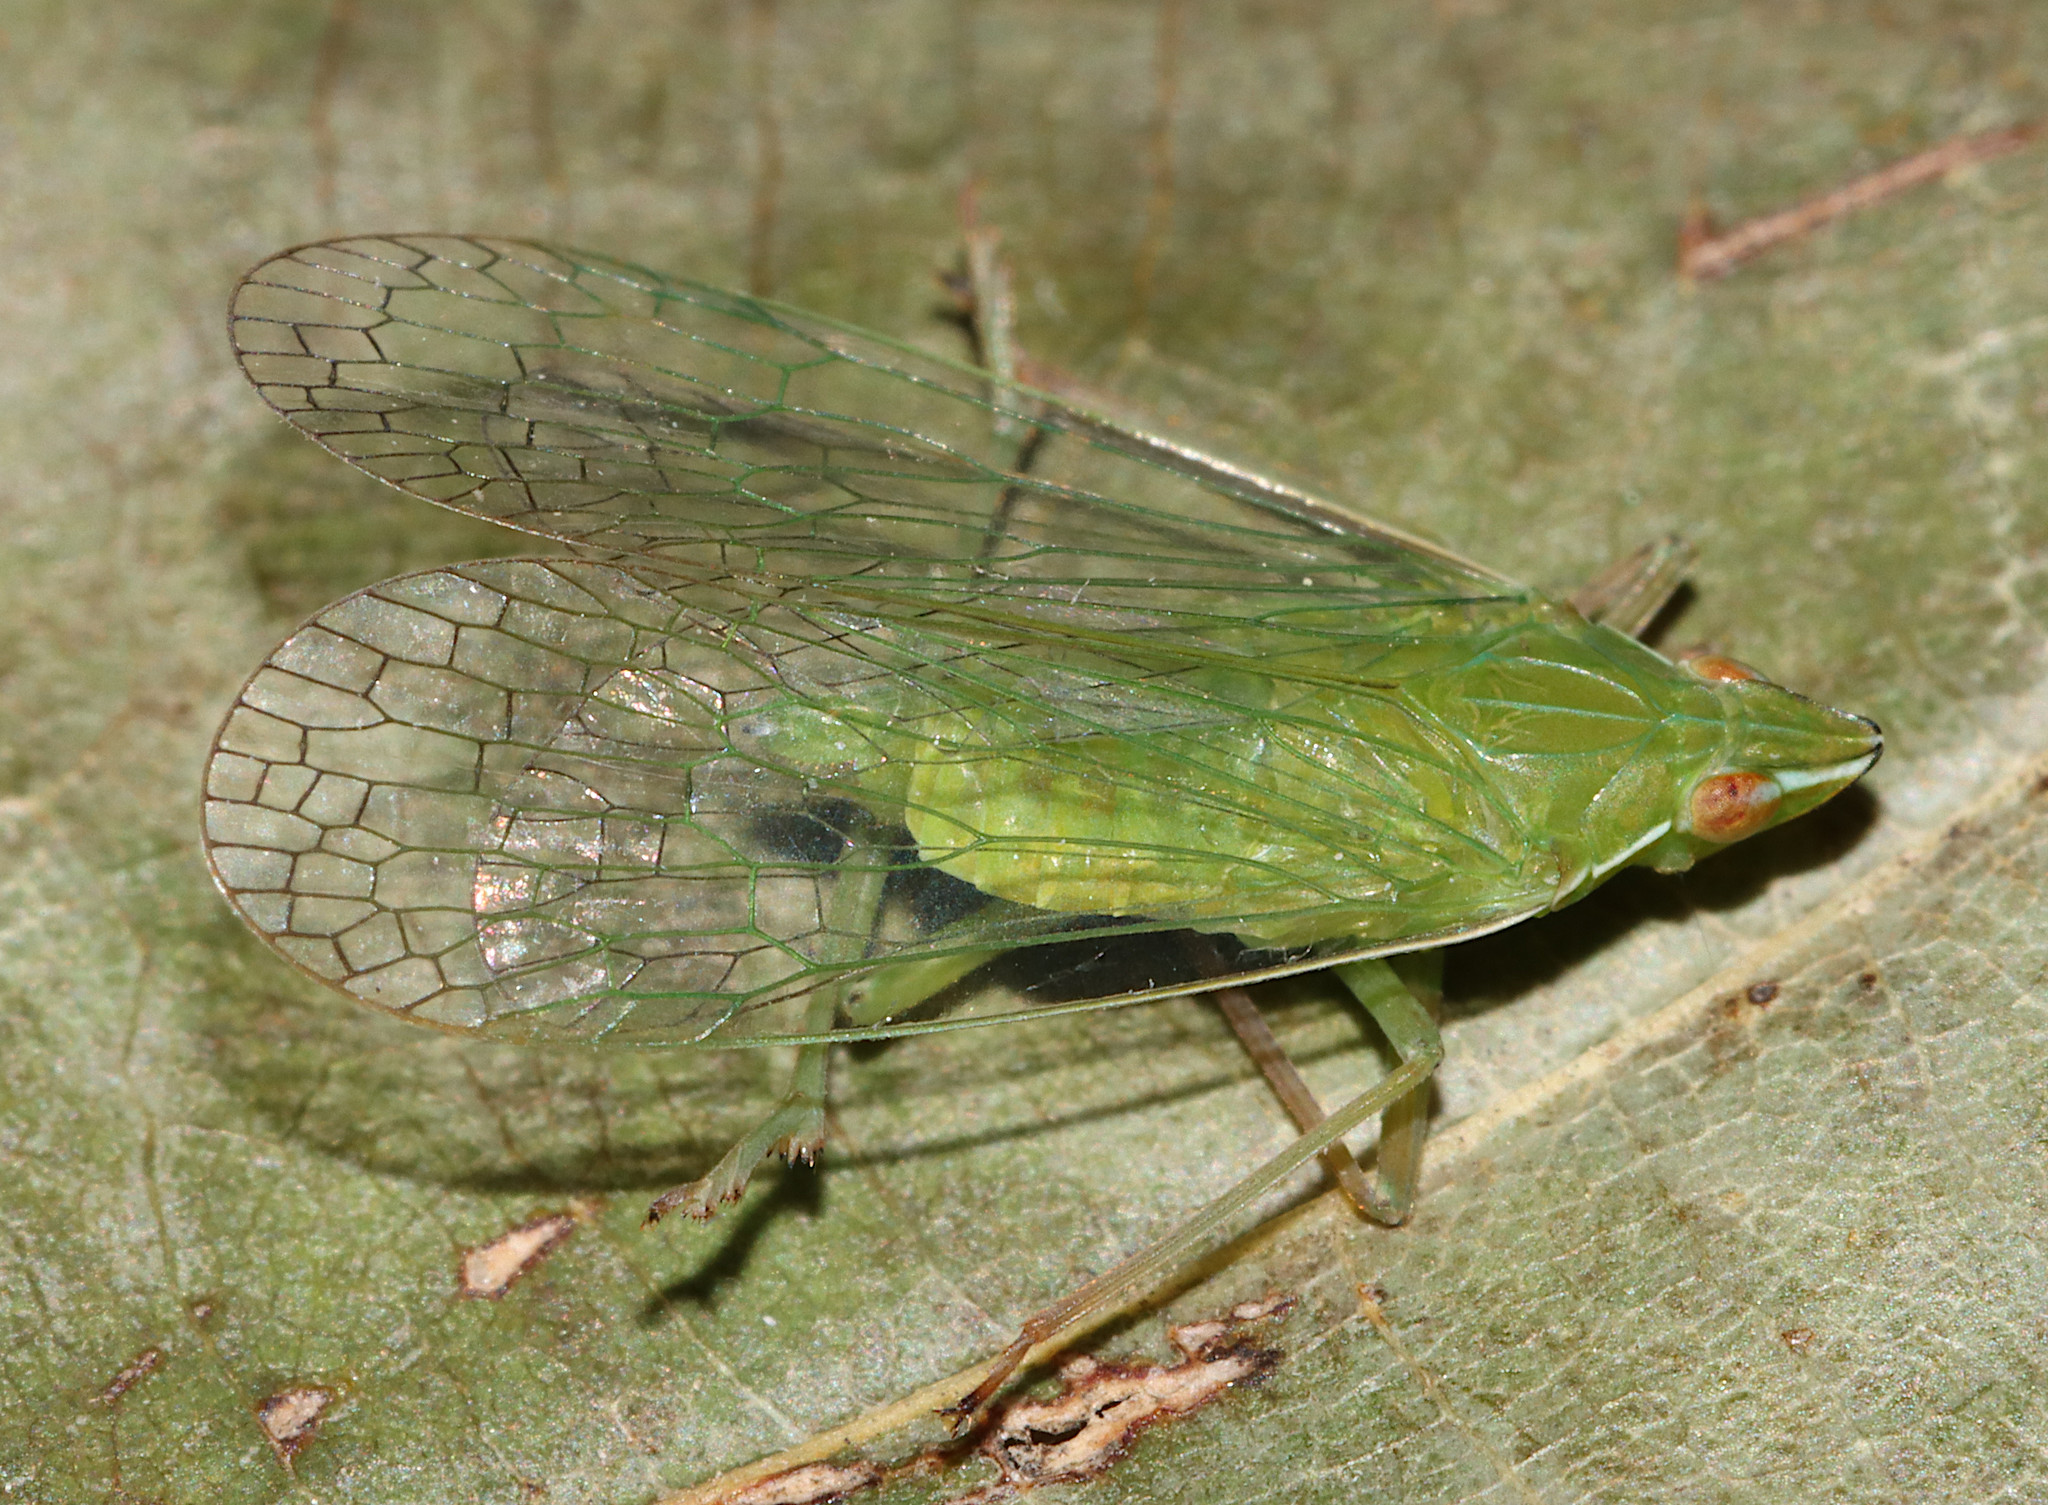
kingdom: Animalia
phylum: Arthropoda
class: Insecta
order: Hemiptera
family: Dictyopharidae
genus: Nersia
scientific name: Nersia florida
